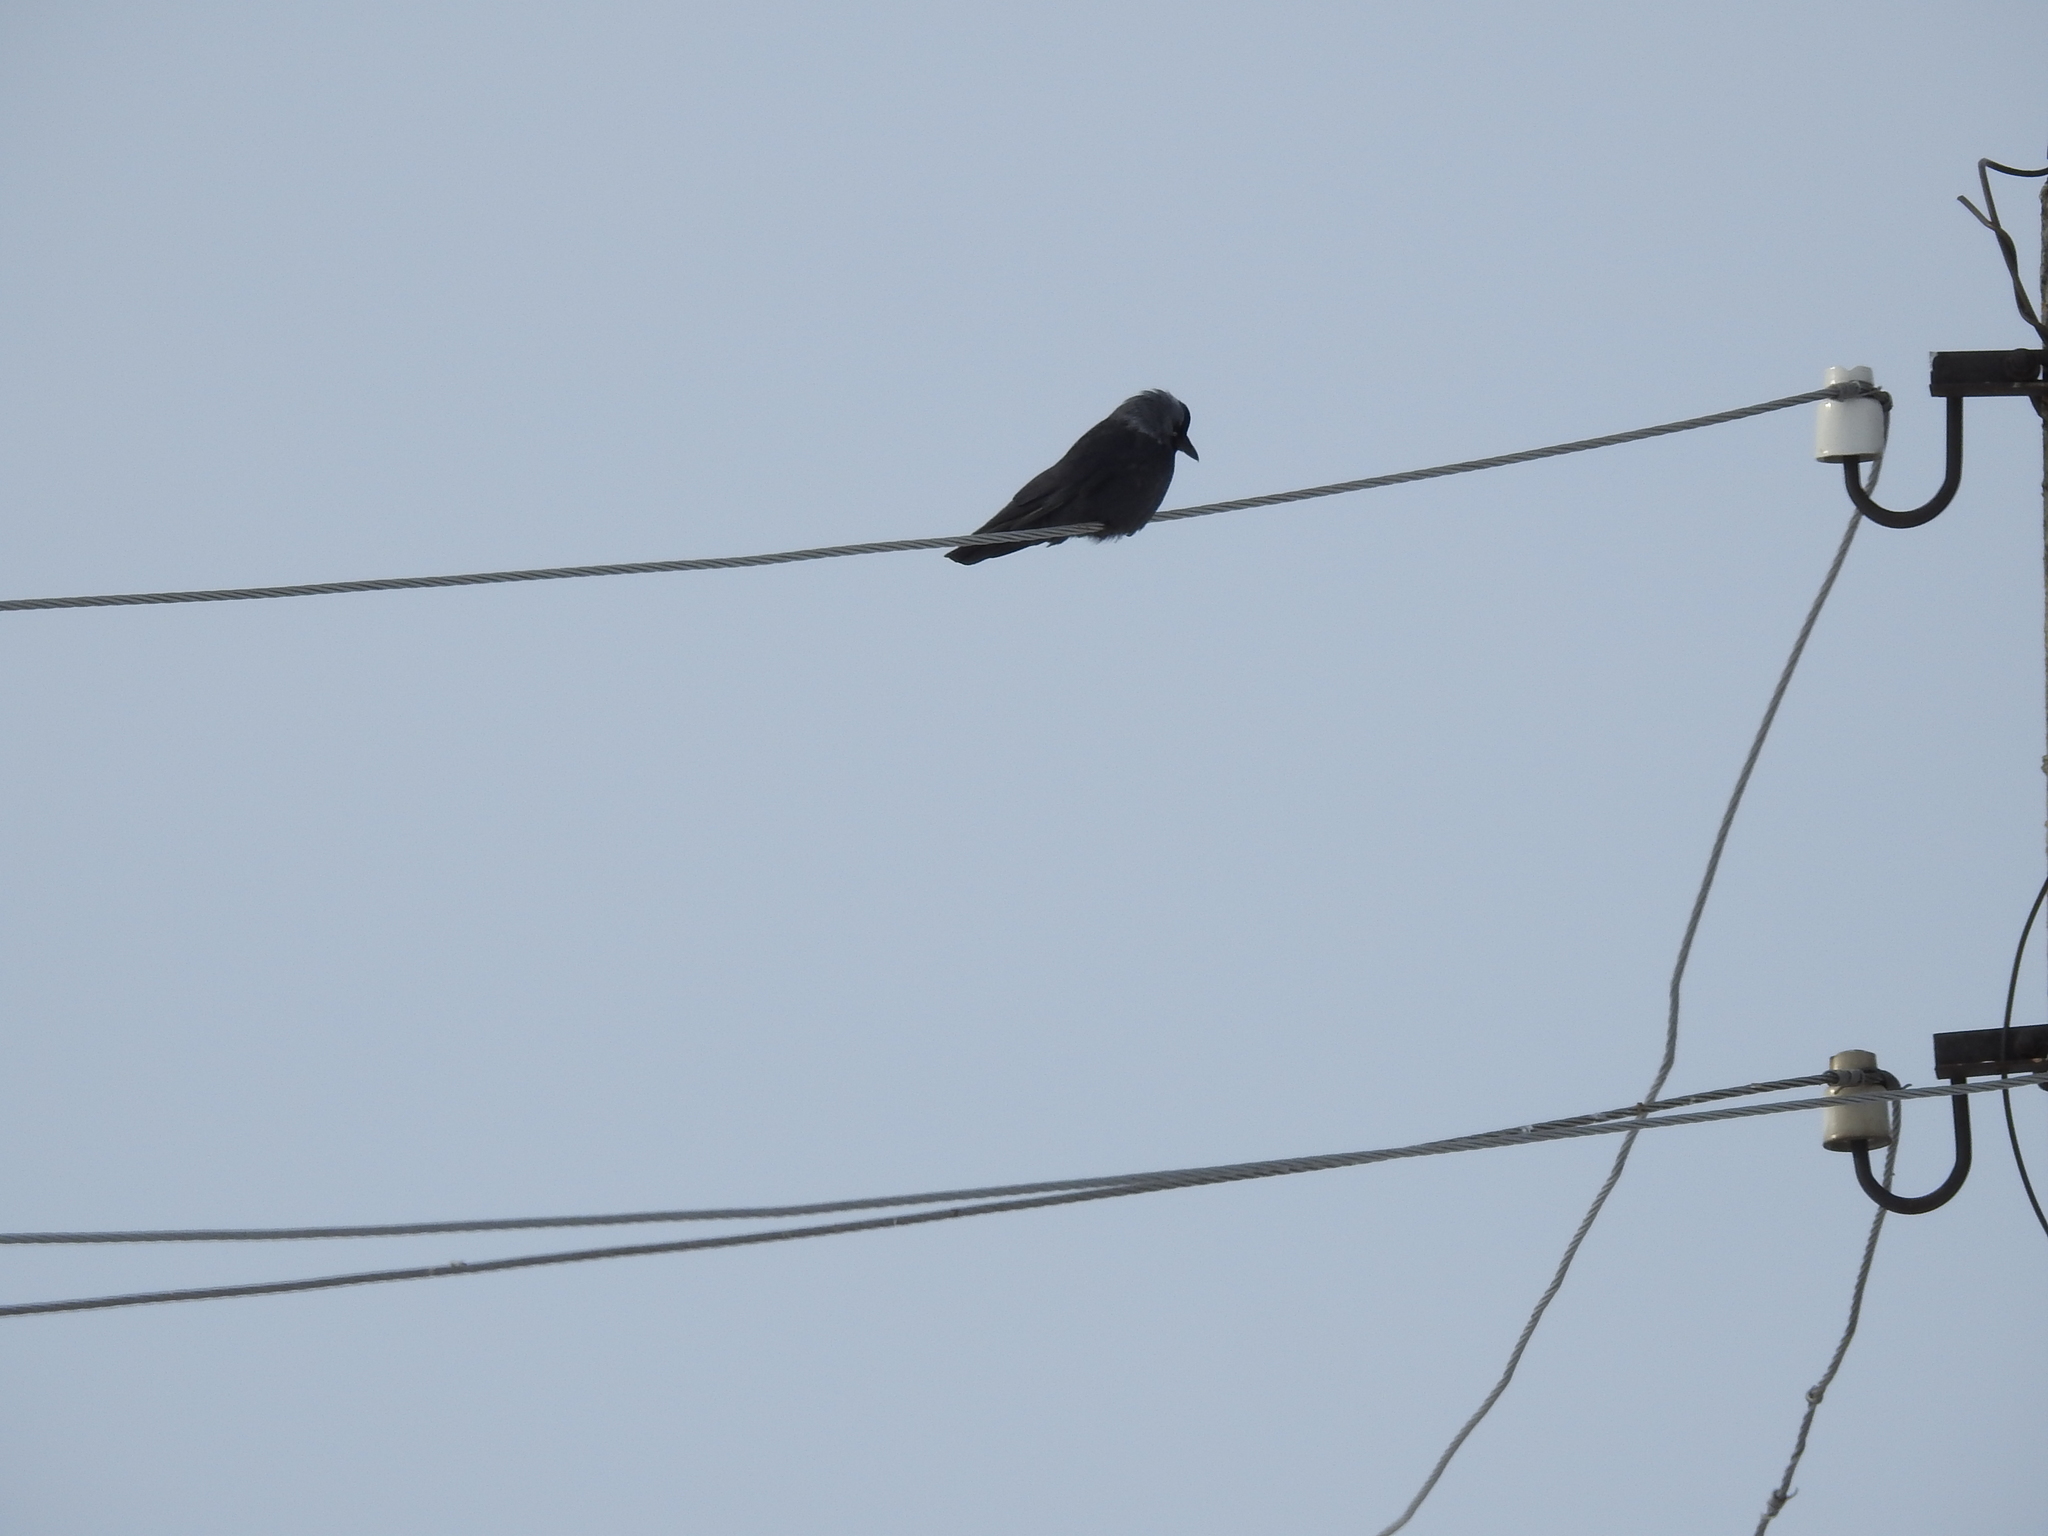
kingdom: Animalia
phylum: Chordata
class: Aves
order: Passeriformes
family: Corvidae
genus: Coloeus
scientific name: Coloeus monedula
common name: Western jackdaw
